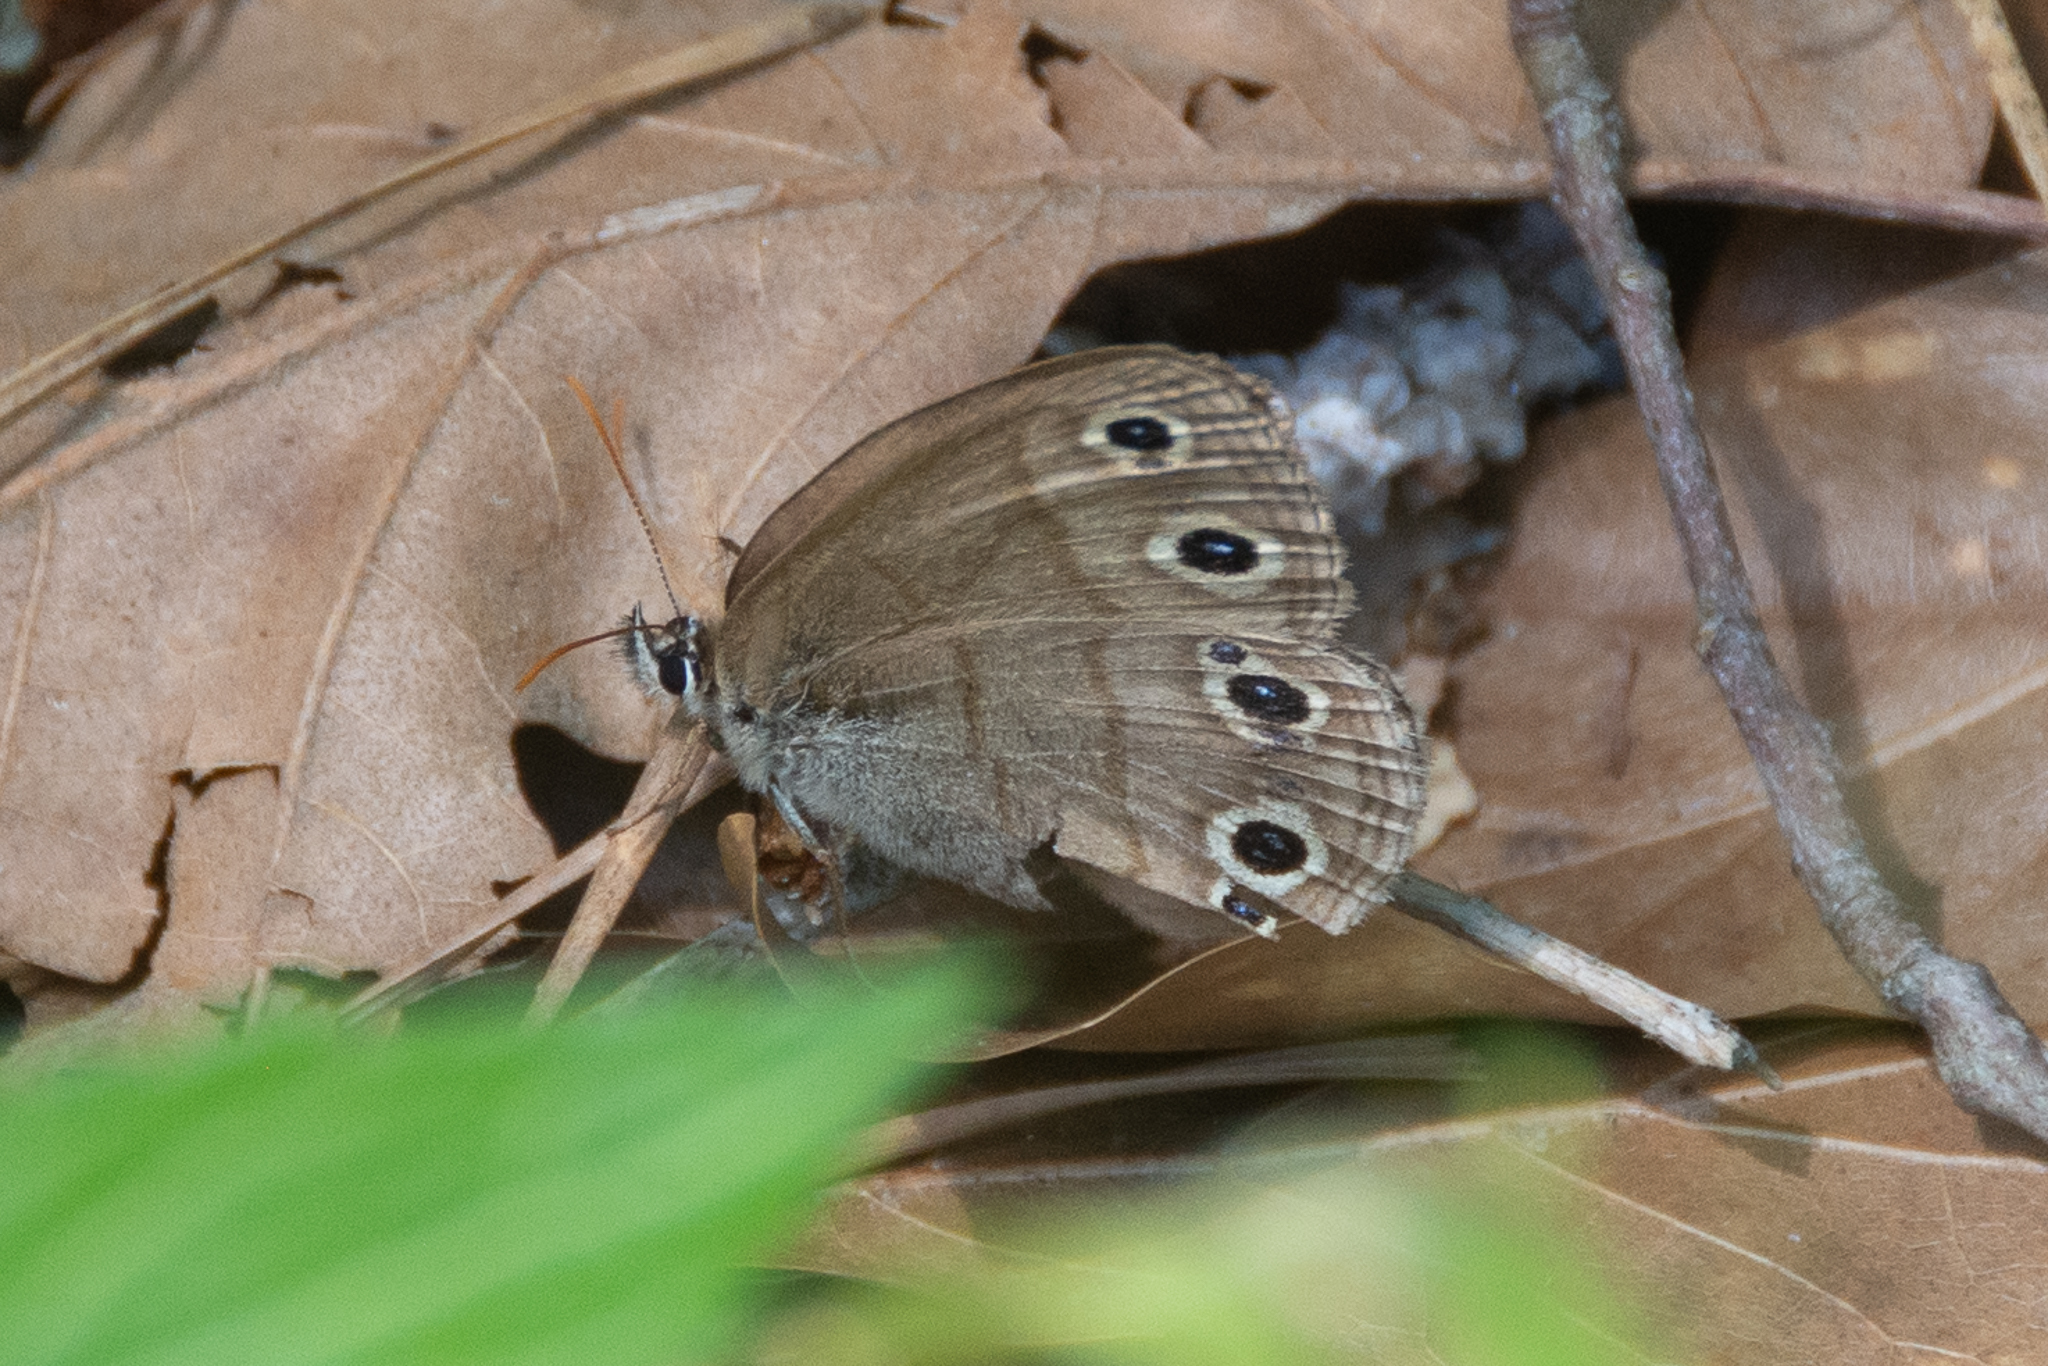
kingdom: Animalia
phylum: Arthropoda
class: Insecta
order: Lepidoptera
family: Nymphalidae
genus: Euptychia
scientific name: Euptychia cymela
